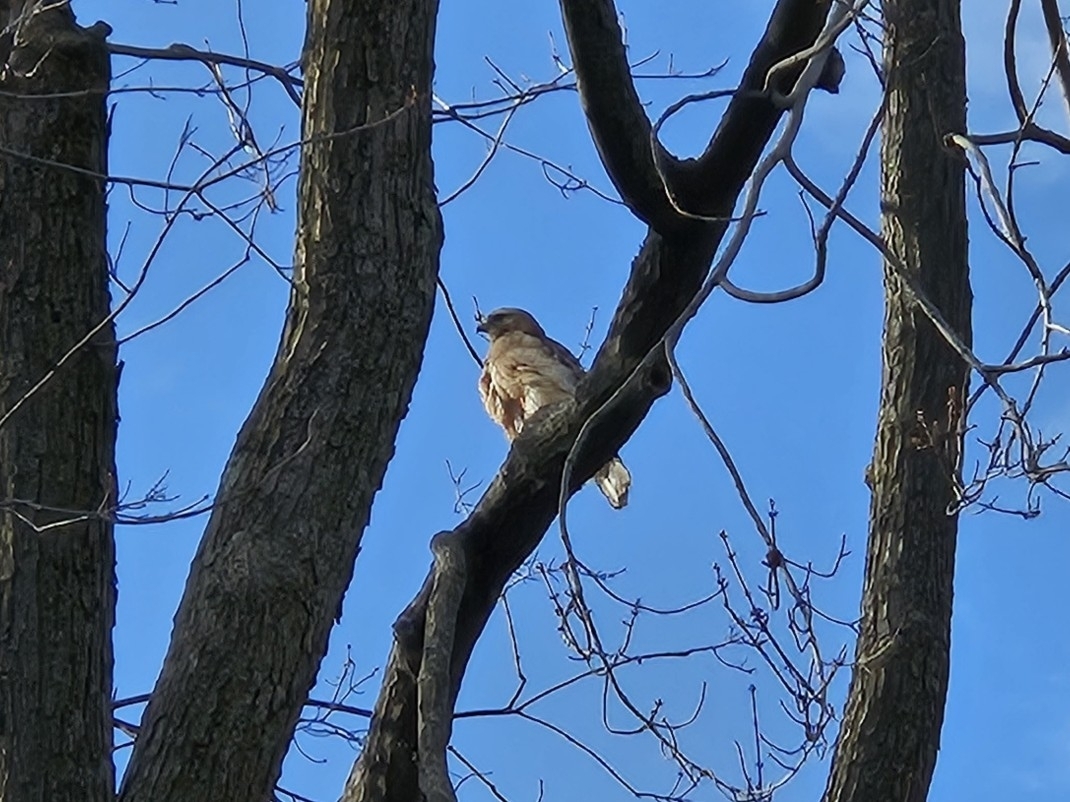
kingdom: Animalia
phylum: Chordata
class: Aves
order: Accipitriformes
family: Accipitridae
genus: Buteo
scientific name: Buteo lineatus
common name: Red-shouldered hawk
